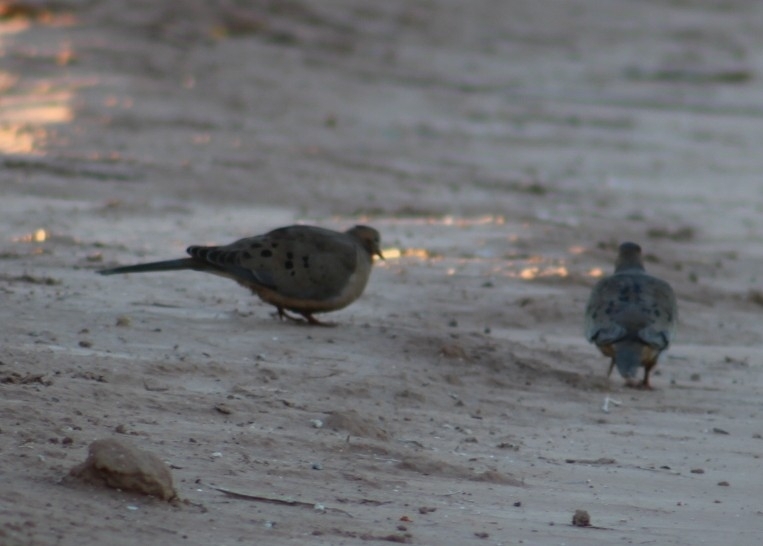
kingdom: Animalia
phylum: Chordata
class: Aves
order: Columbiformes
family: Columbidae
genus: Zenaida
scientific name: Zenaida macroura
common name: Mourning dove
